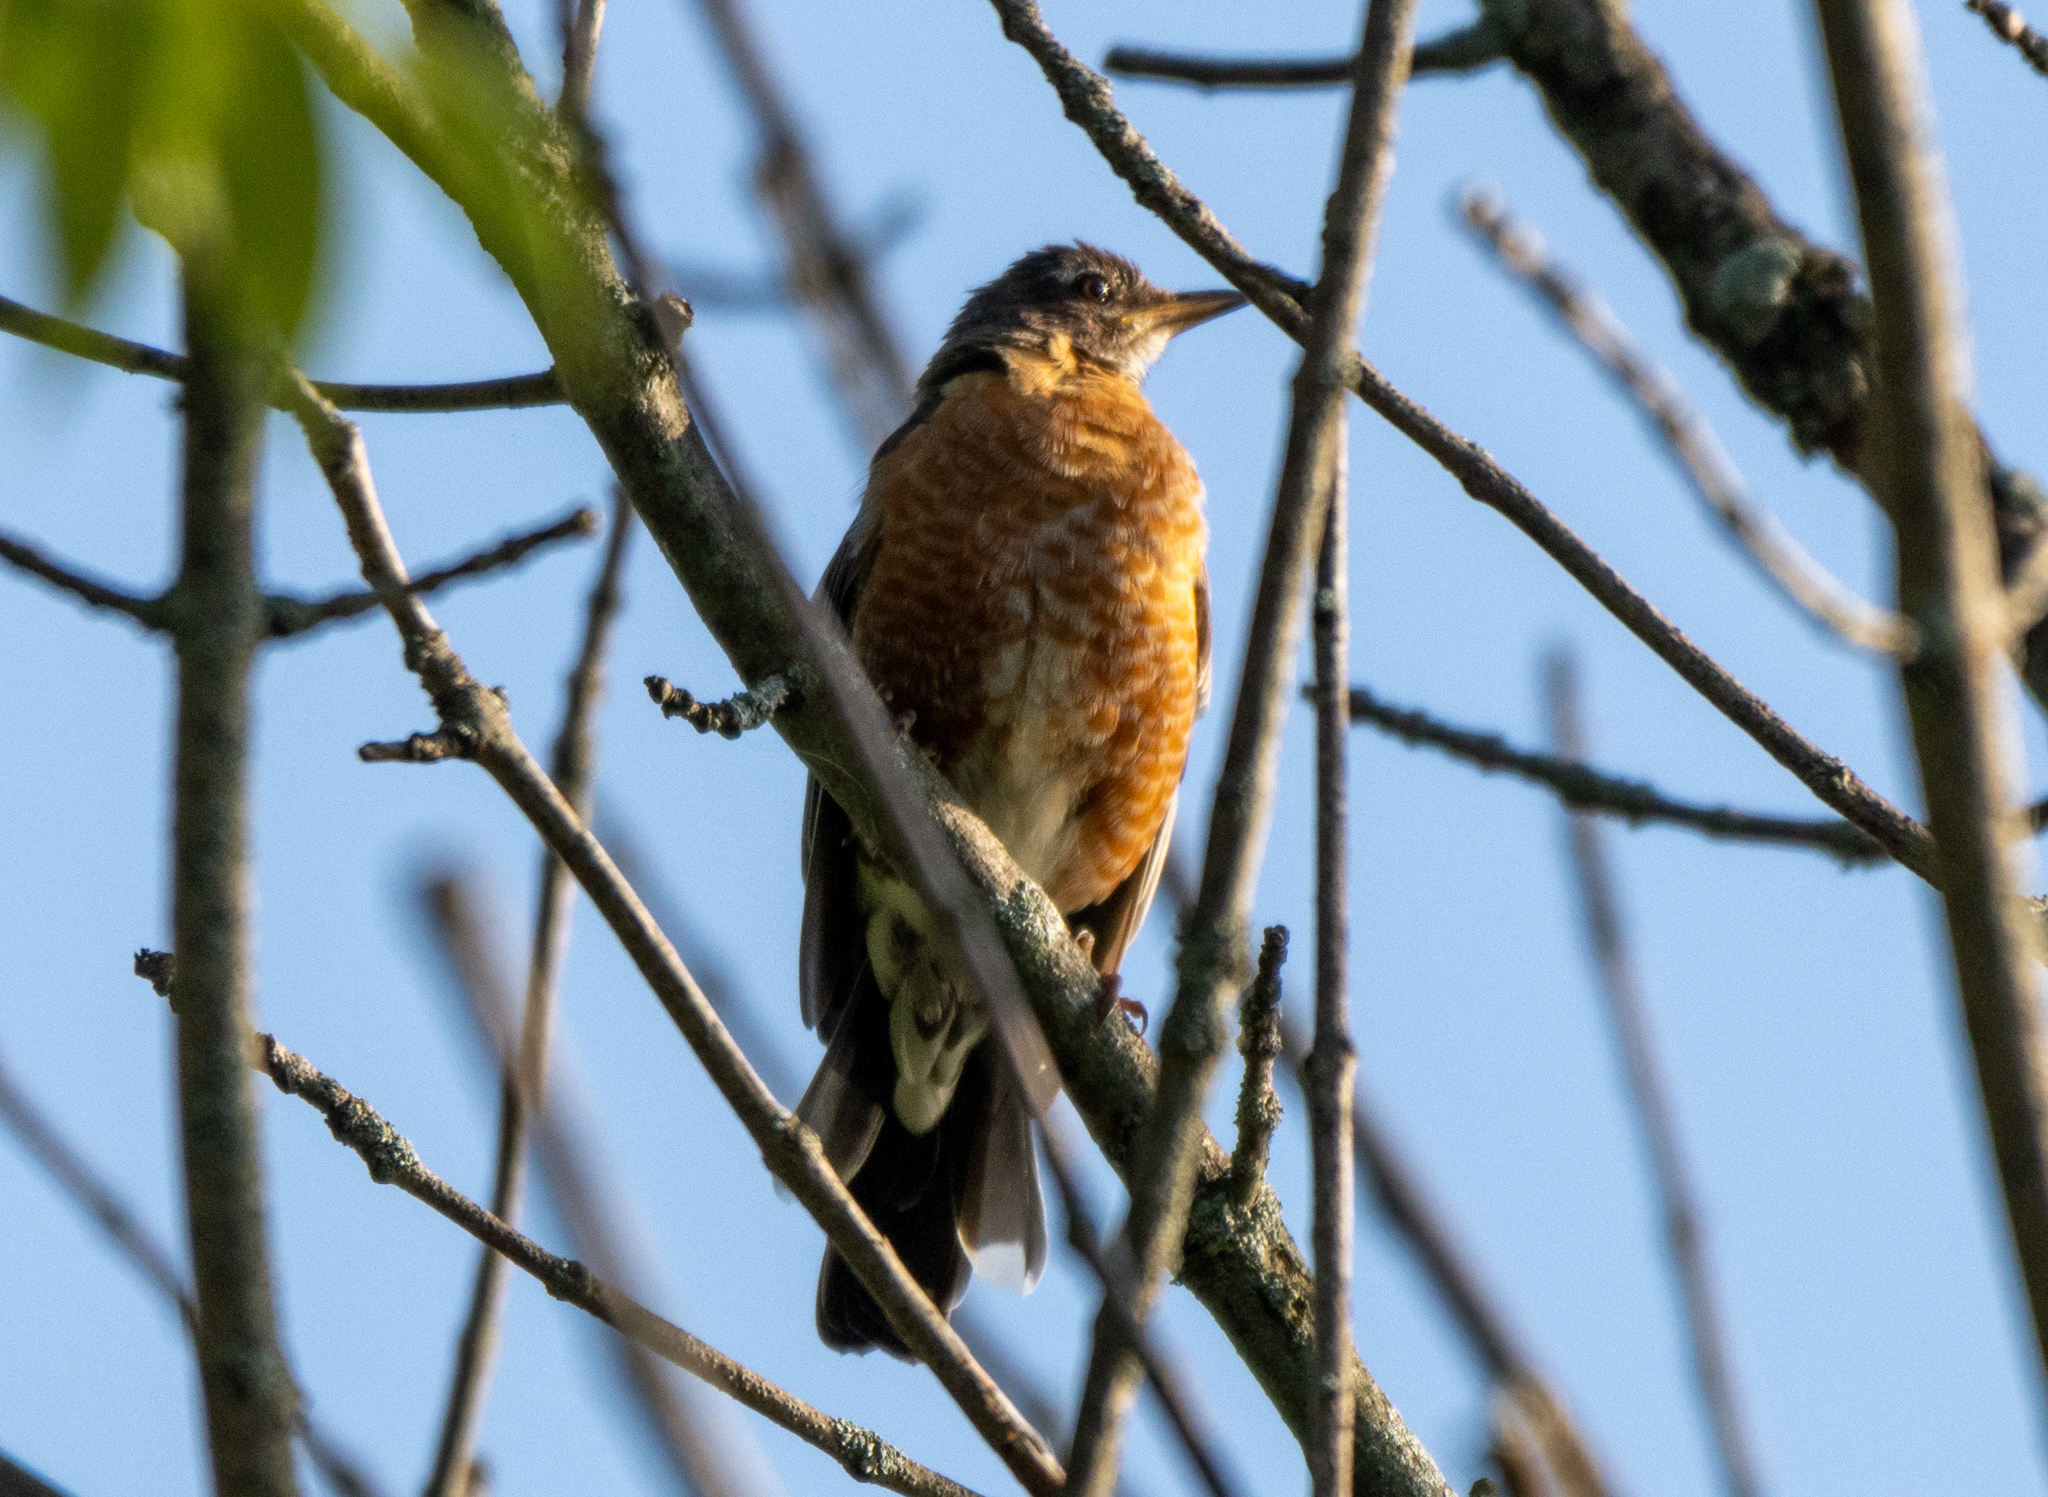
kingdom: Animalia
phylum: Chordata
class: Aves
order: Passeriformes
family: Turdidae
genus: Turdus
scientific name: Turdus migratorius
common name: American robin
